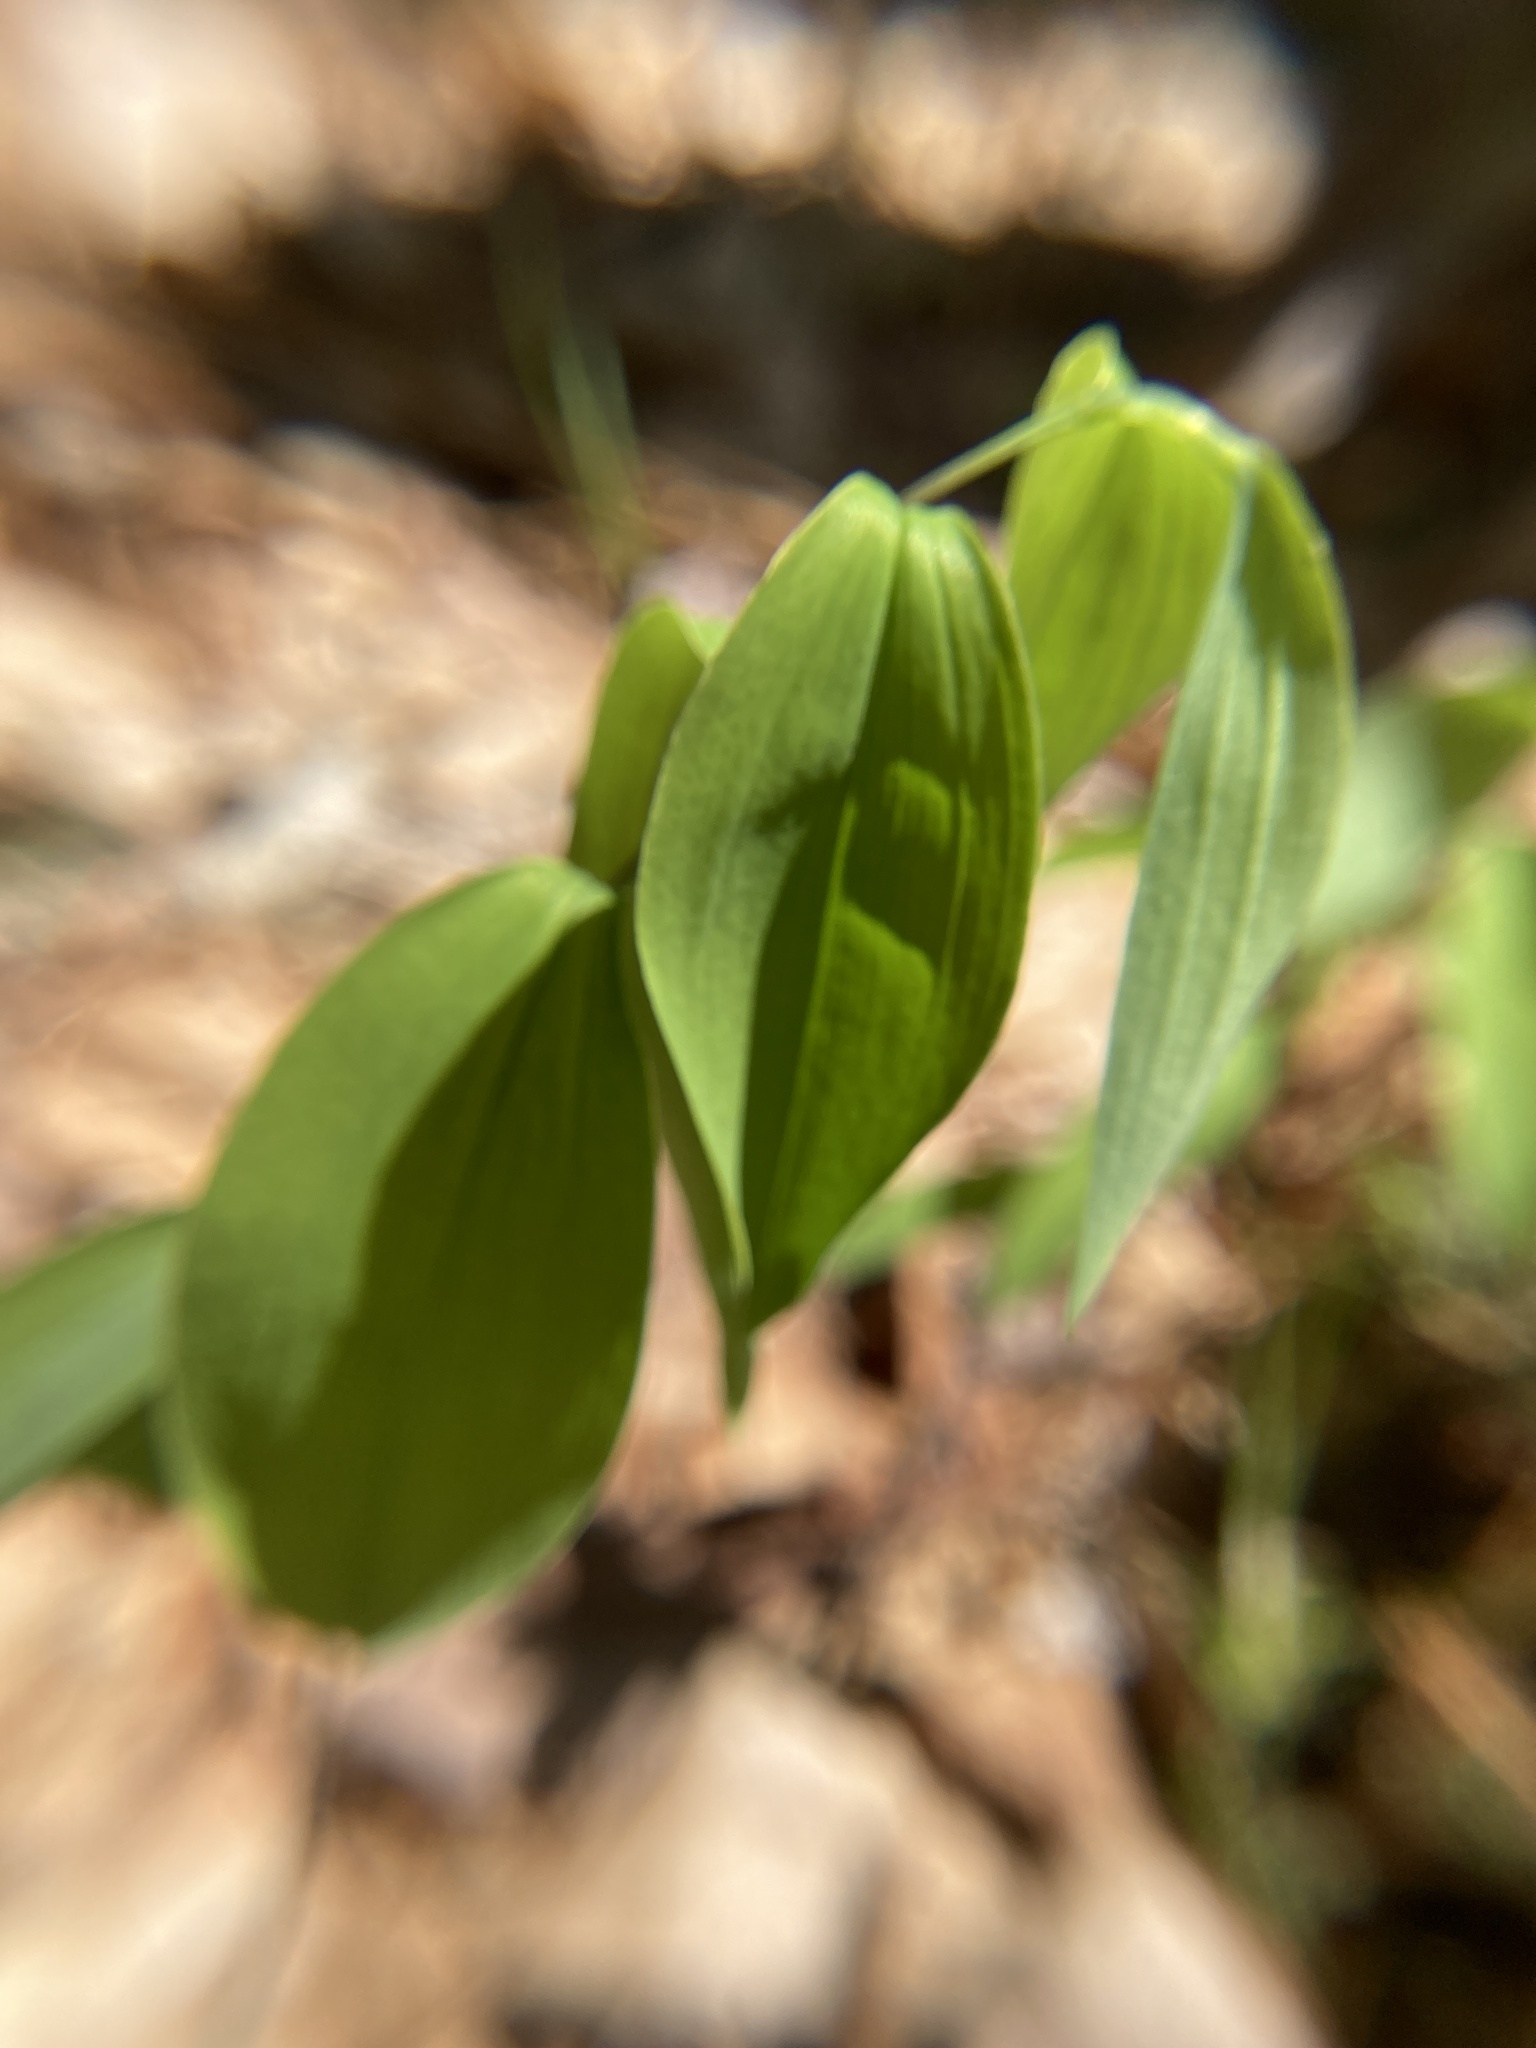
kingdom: Plantae
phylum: Tracheophyta
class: Liliopsida
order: Liliales
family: Colchicaceae
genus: Uvularia
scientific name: Uvularia sessilifolia
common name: Straw-lily
